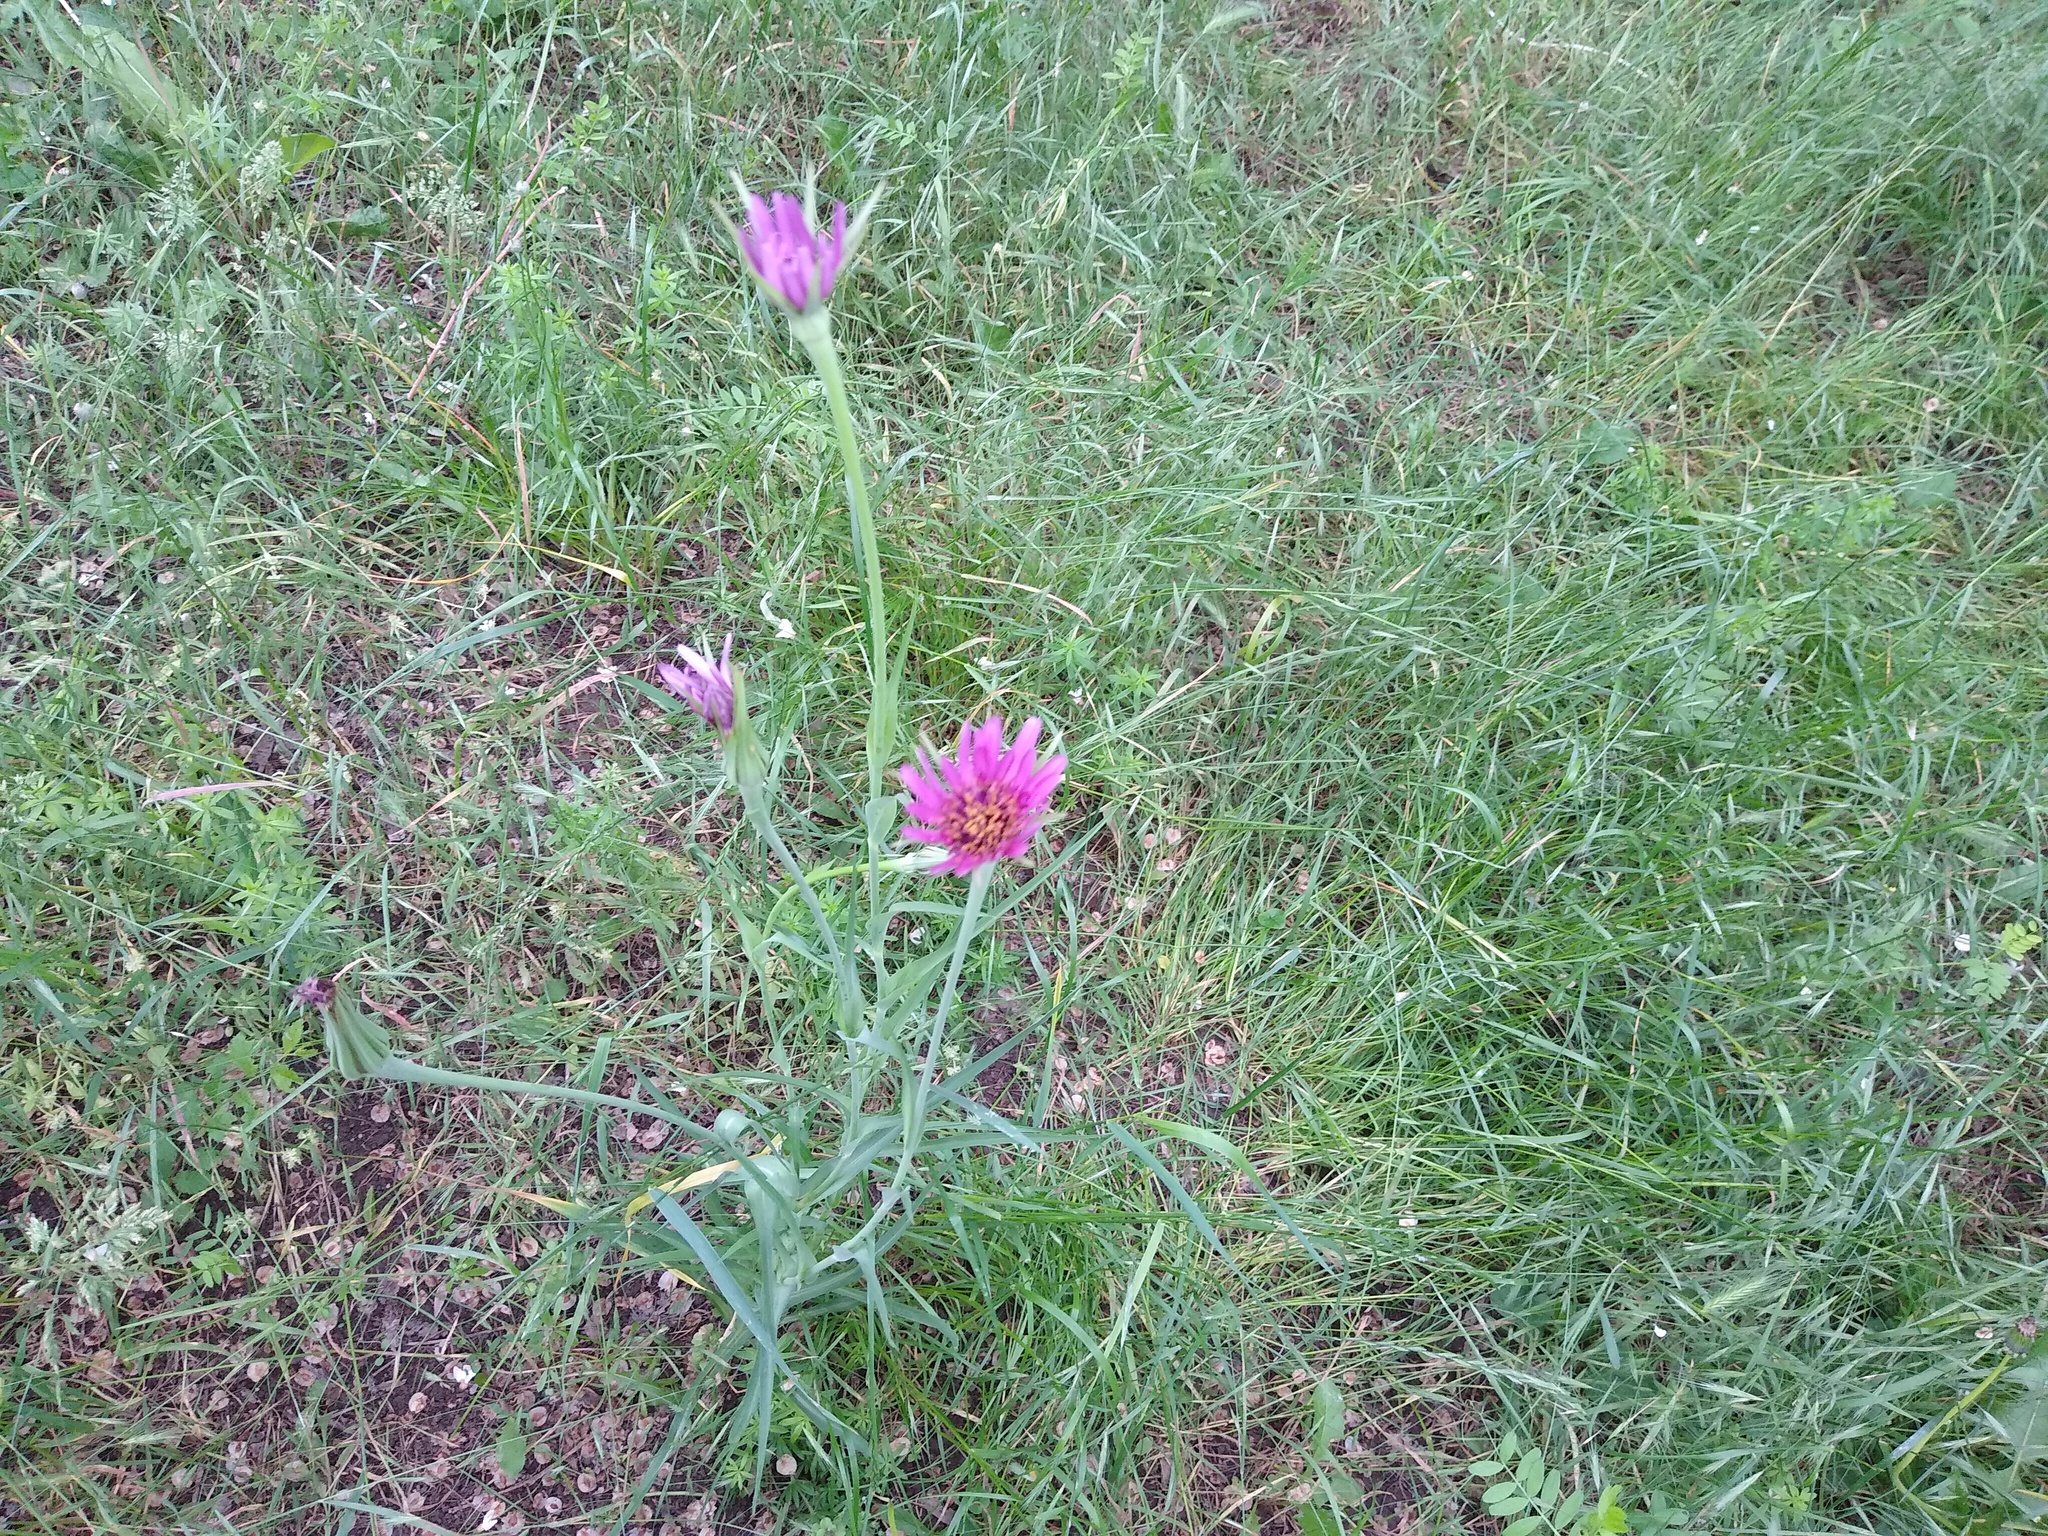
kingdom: Plantae
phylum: Tracheophyta
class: Magnoliopsida
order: Asterales
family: Asteraceae
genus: Tragopogon
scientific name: Tragopogon porrifolius
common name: Salsify
